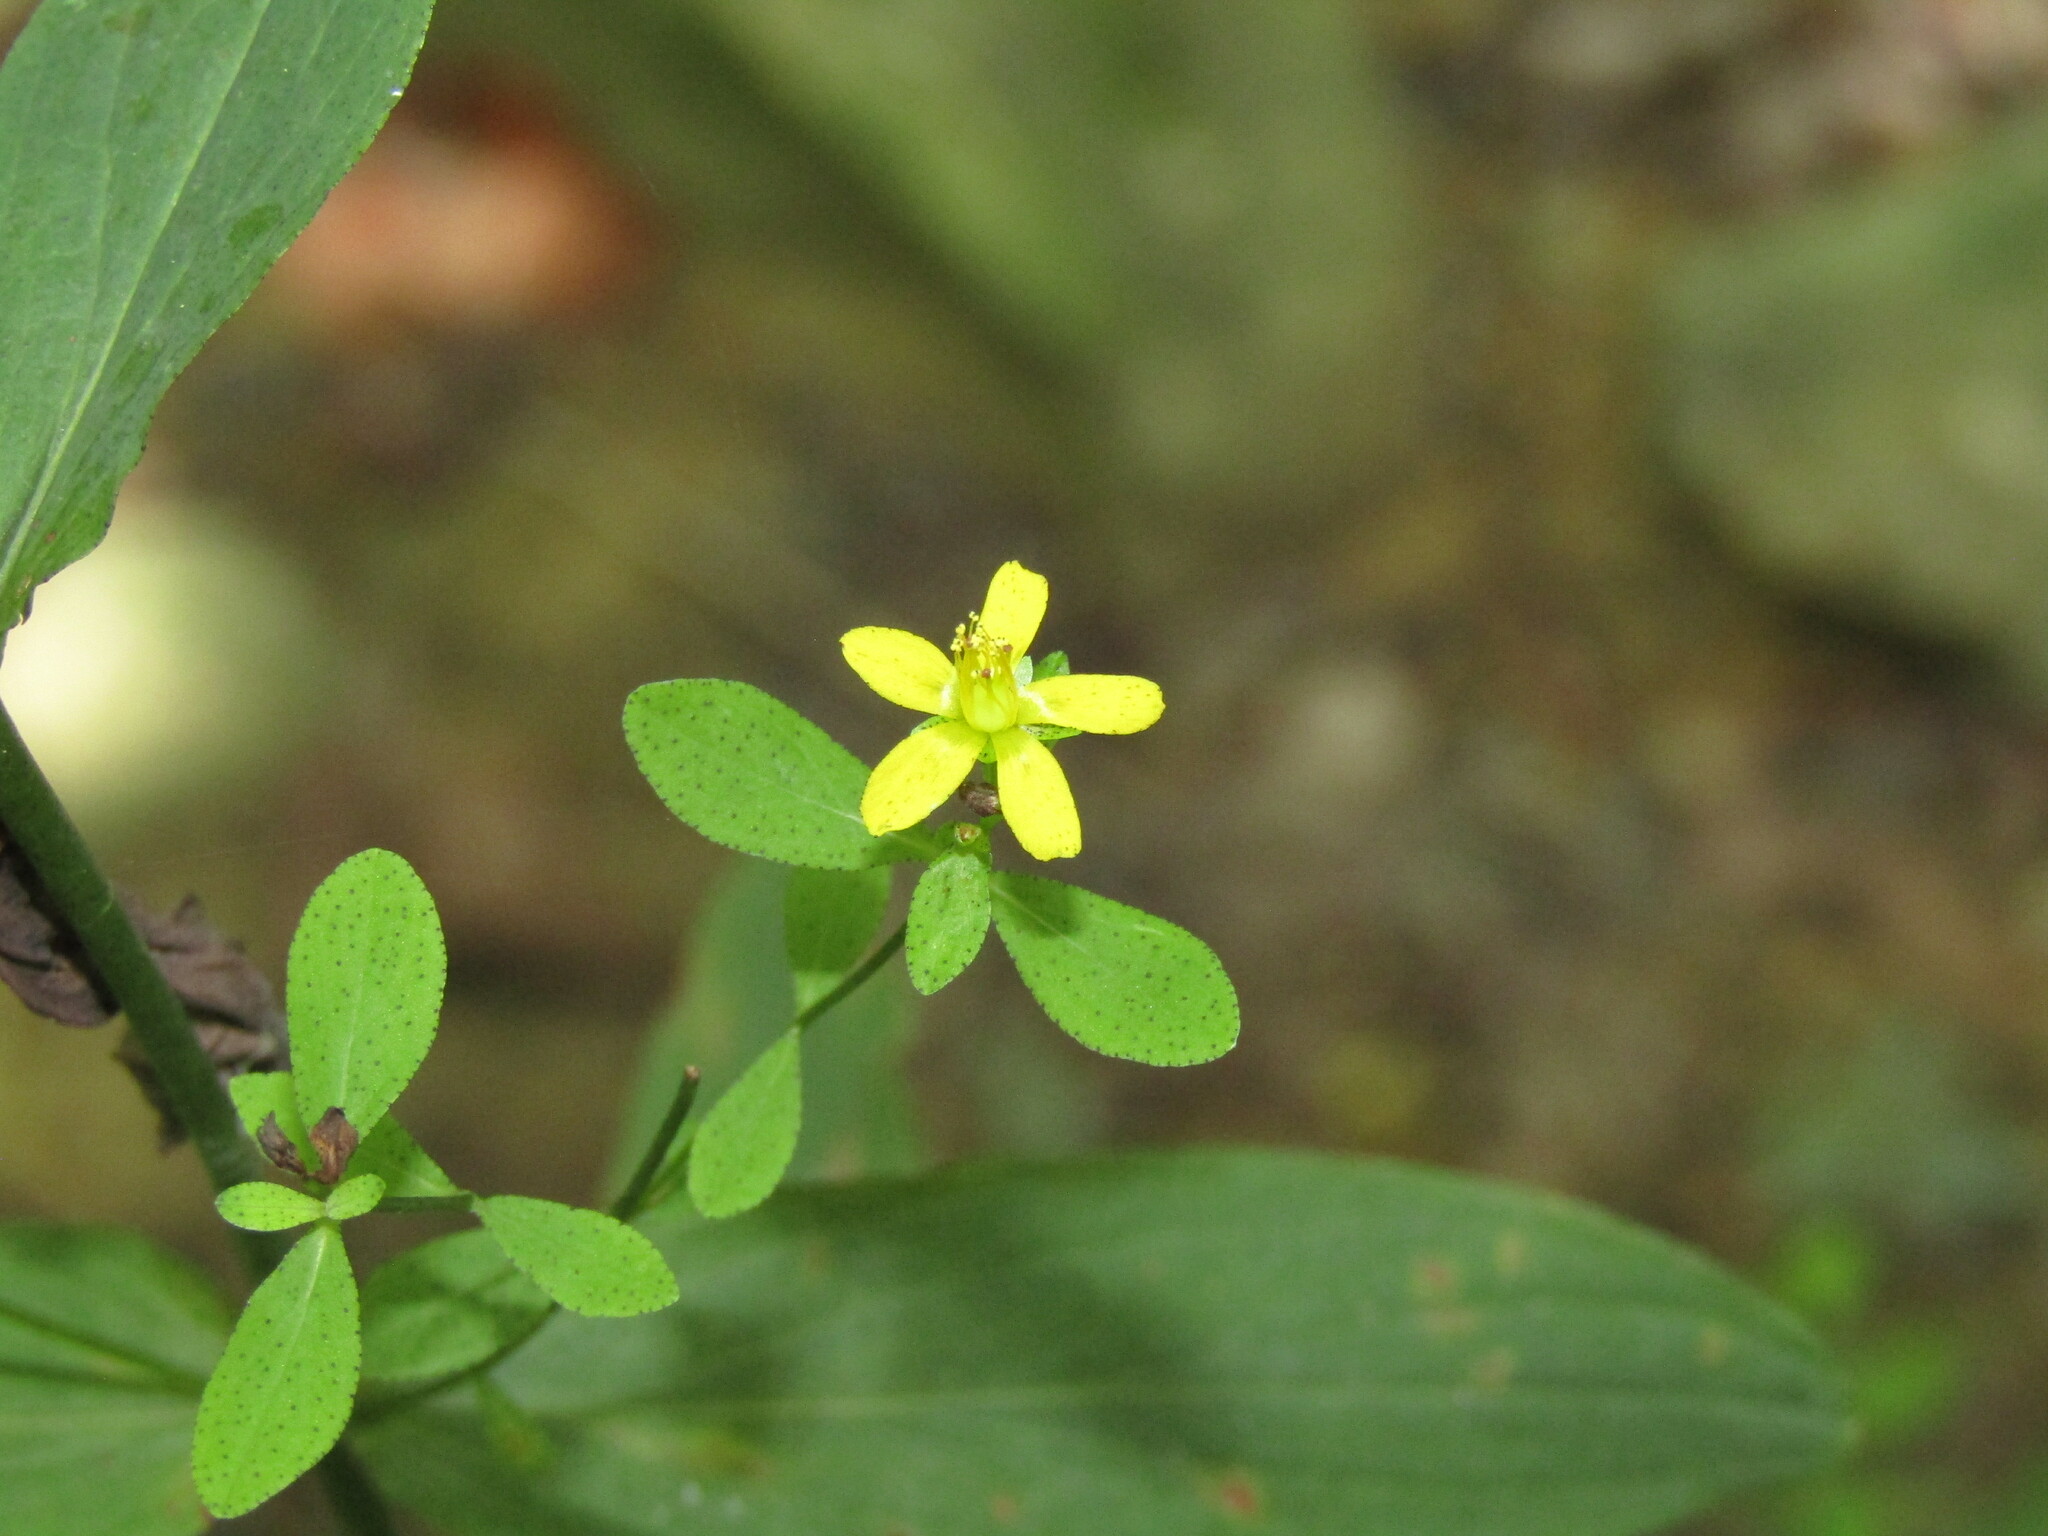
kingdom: Plantae
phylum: Tracheophyta
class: Magnoliopsida
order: Malpighiales
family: Hypericaceae
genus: Hypericum
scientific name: Hypericum punctatum
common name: Spotted st. john's-wort
